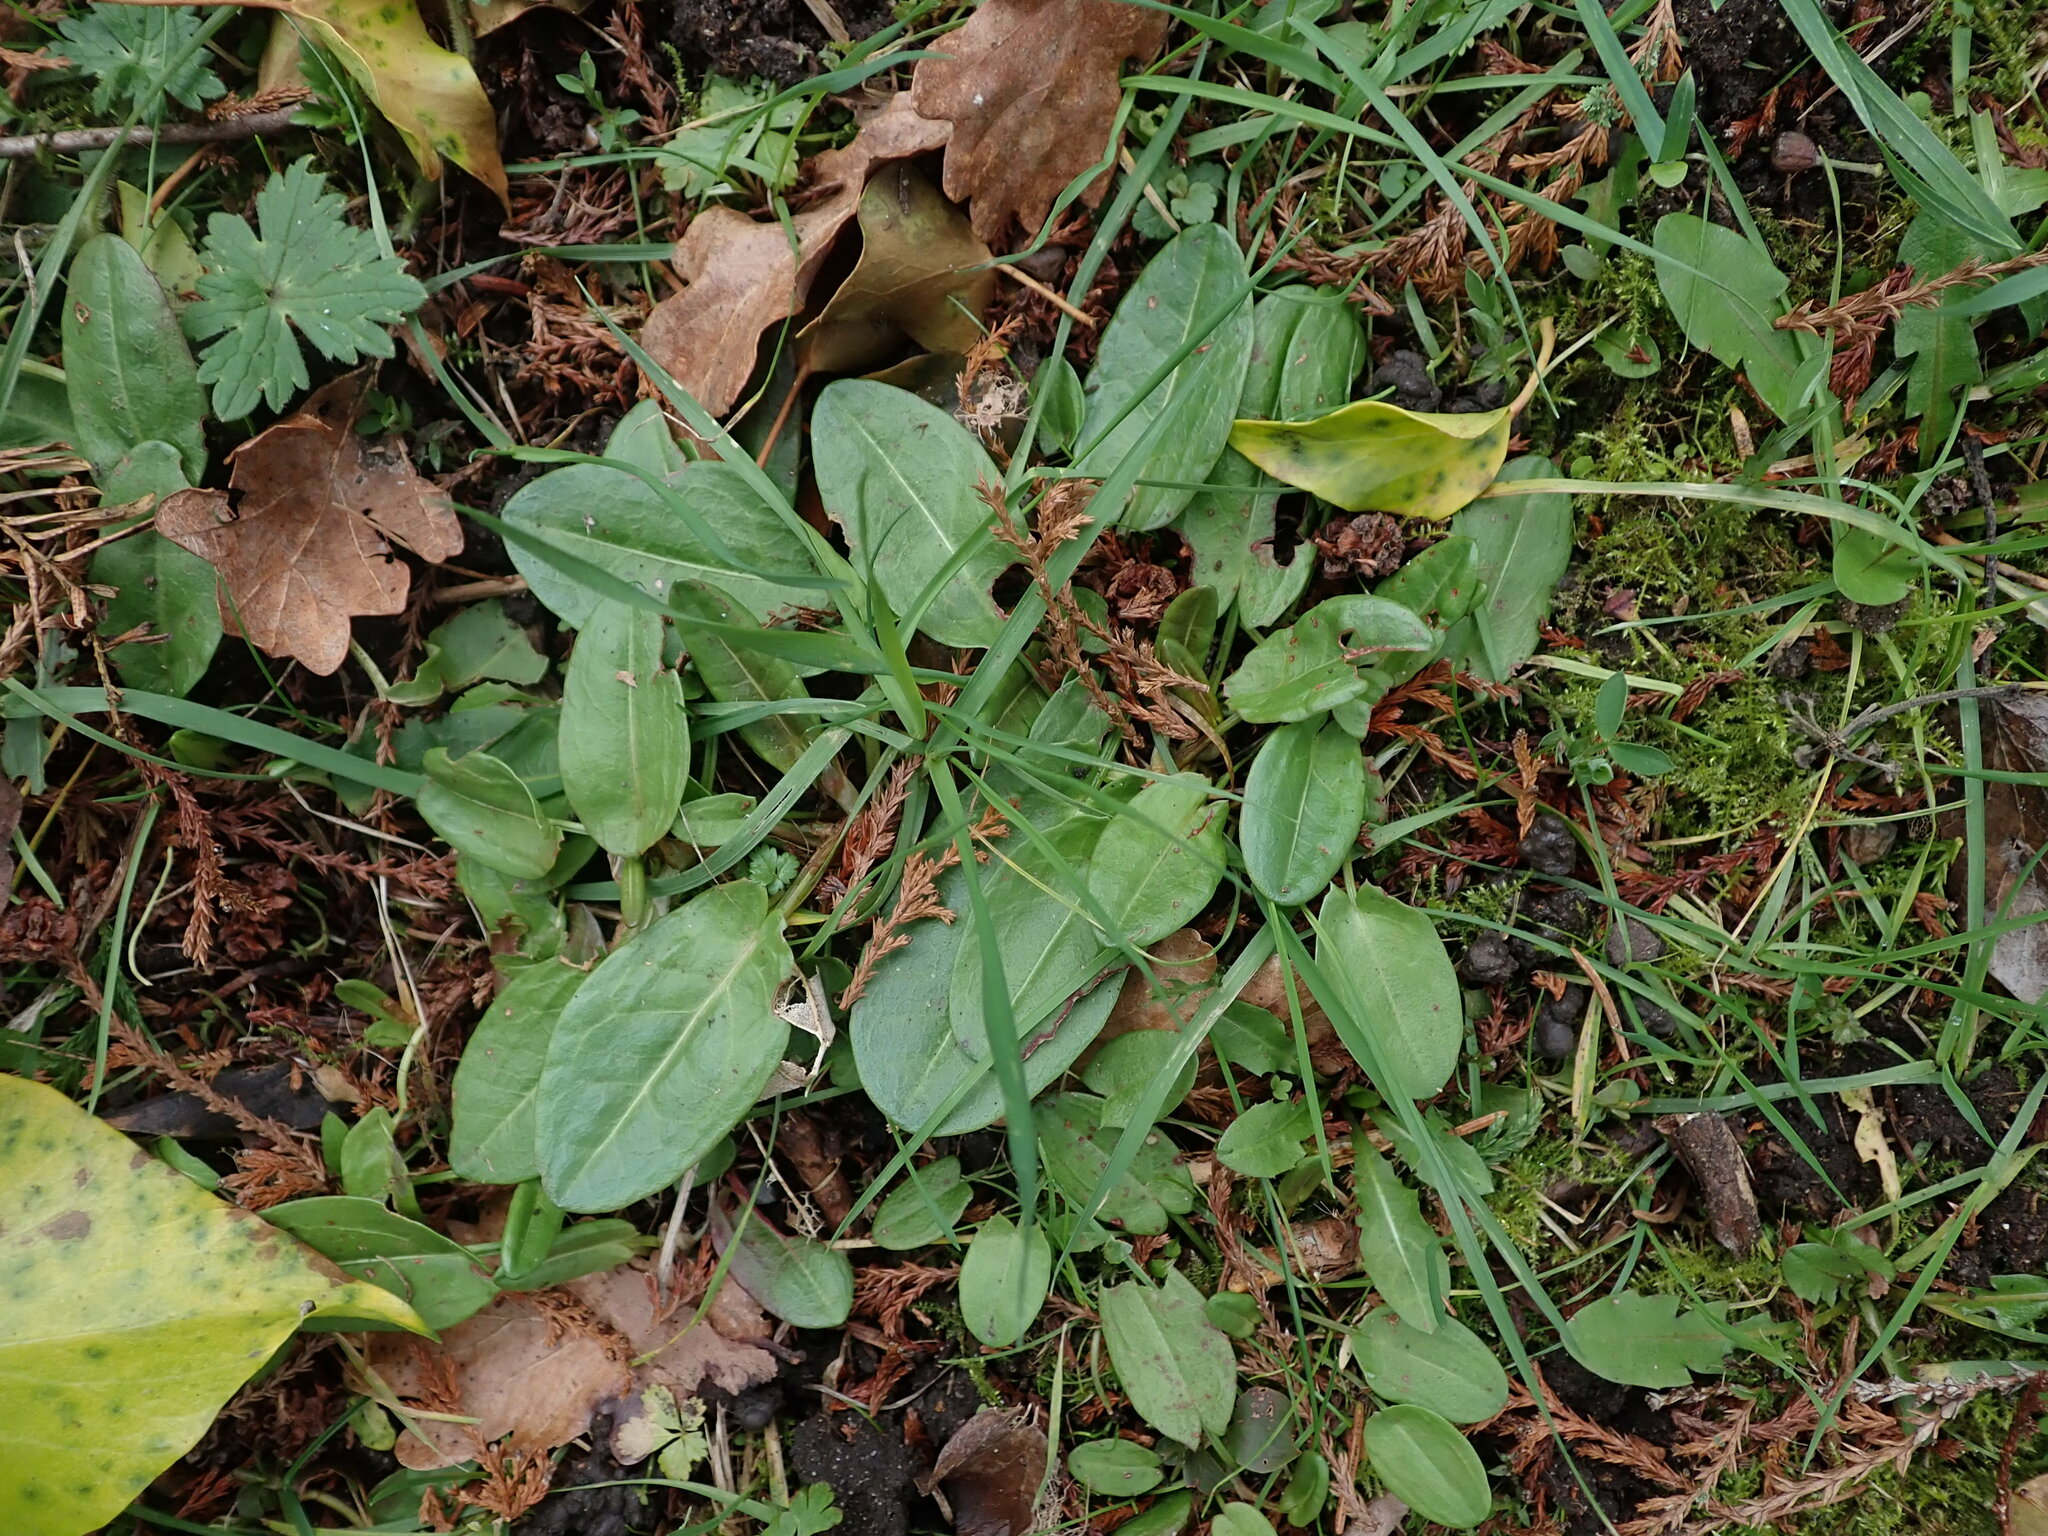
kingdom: Plantae
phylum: Tracheophyta
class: Magnoliopsida
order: Caryophyllales
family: Polygonaceae
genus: Rumex
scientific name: Rumex acetosa
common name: Garden sorrel
